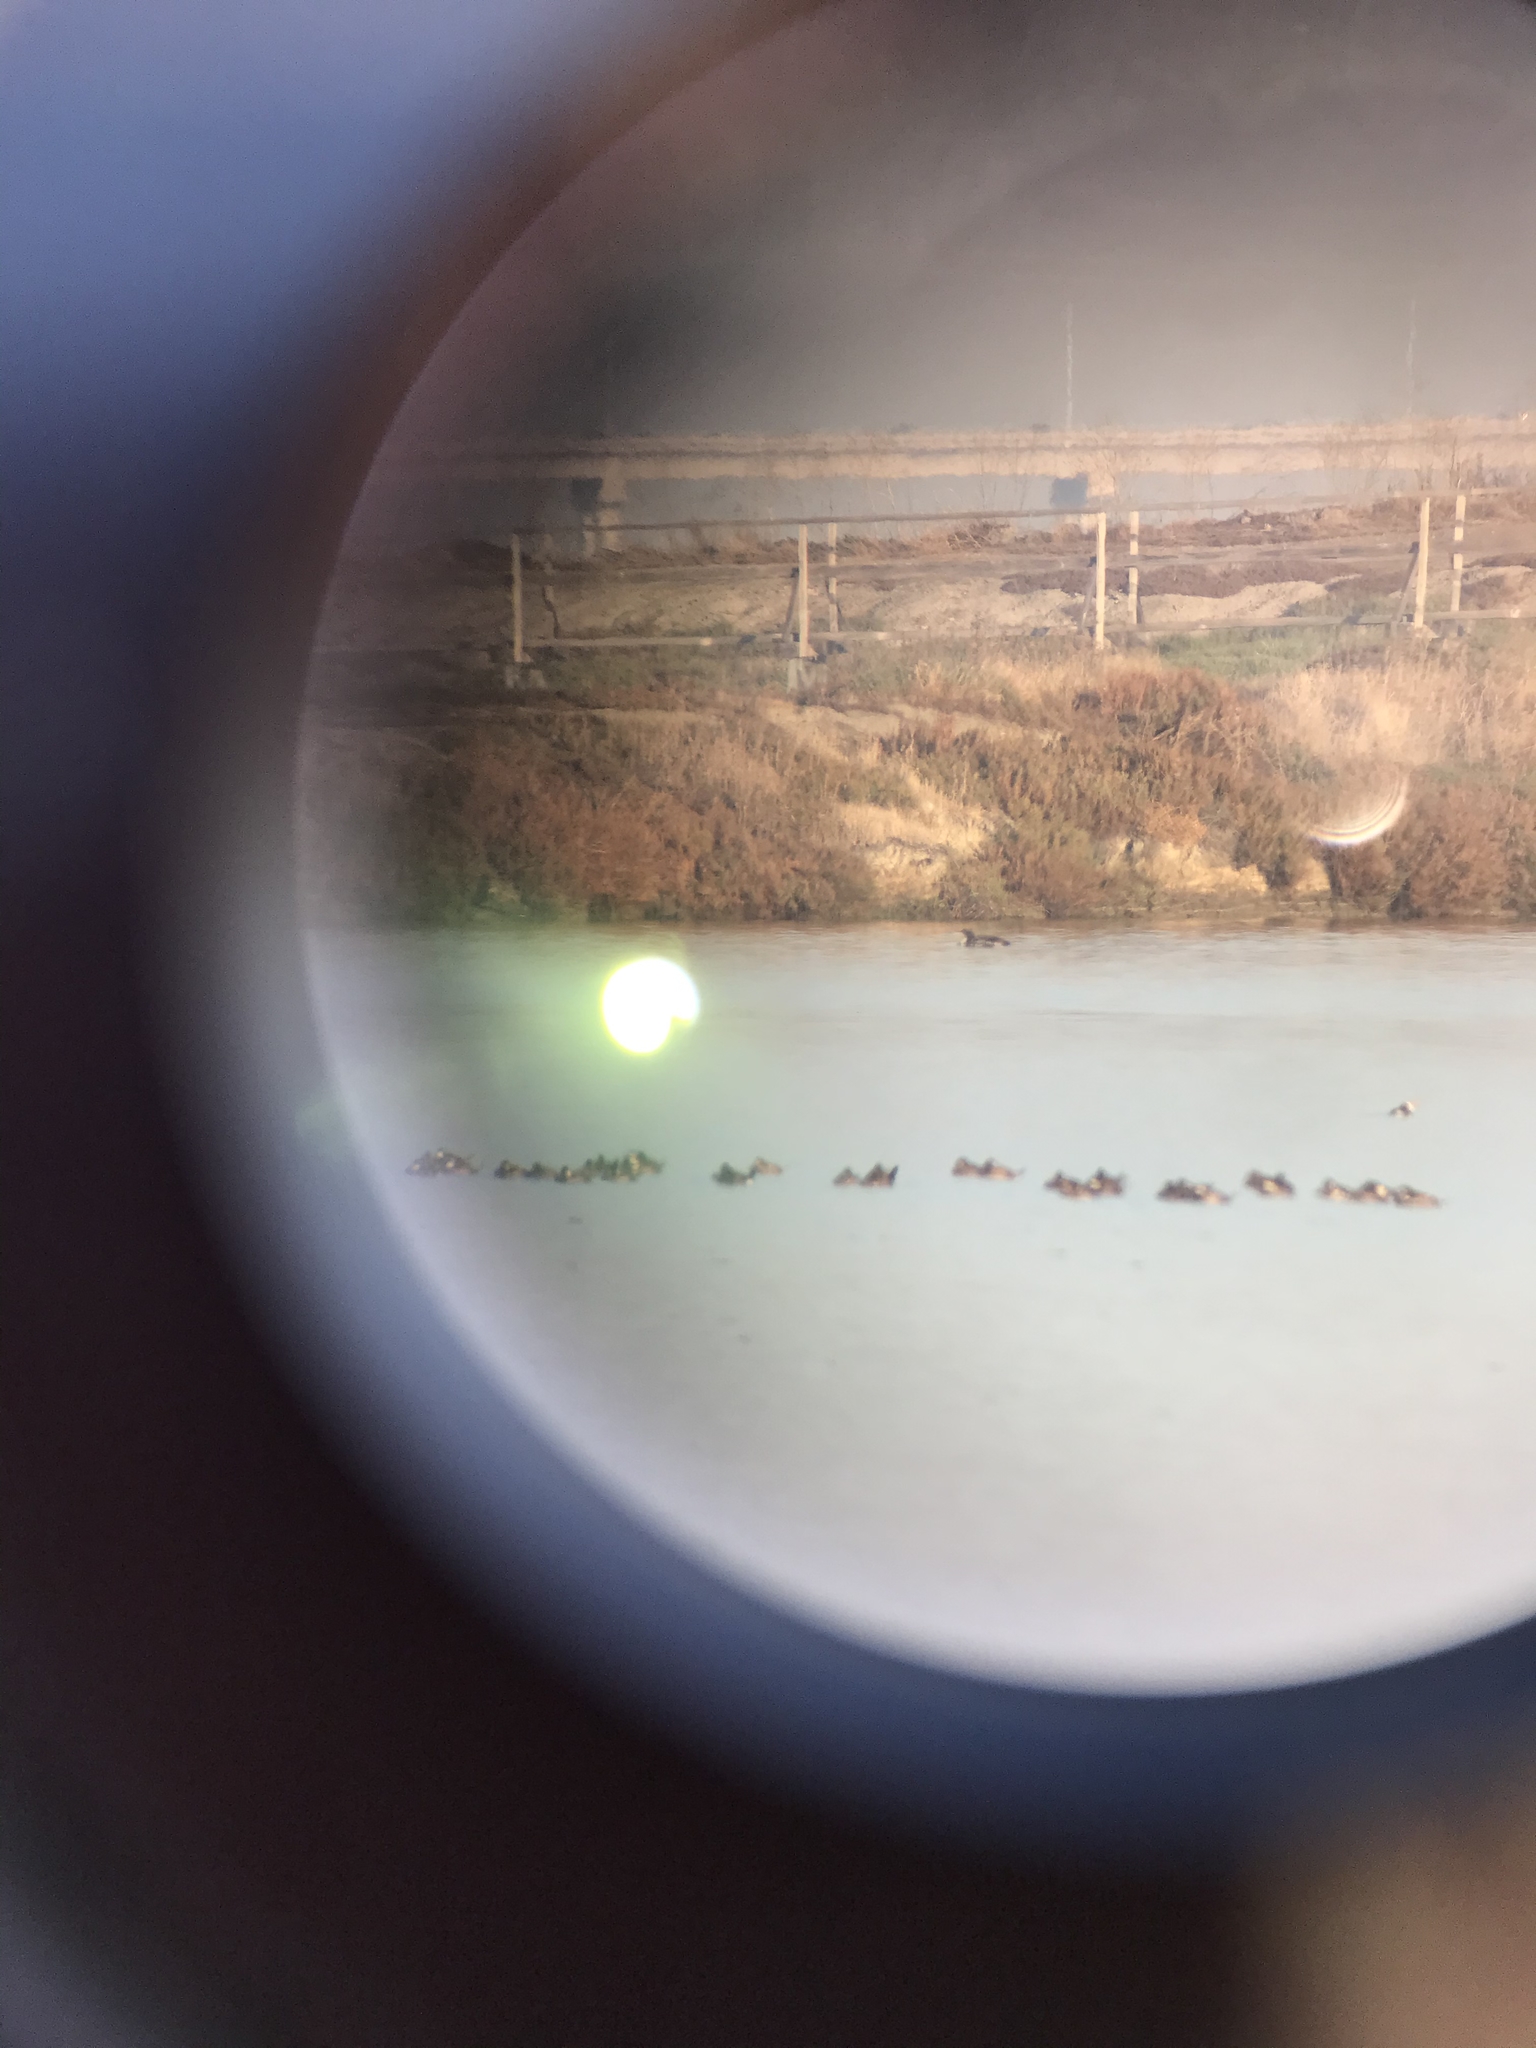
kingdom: Animalia
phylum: Chordata
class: Aves
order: Gaviiformes
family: Gaviidae
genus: Gavia
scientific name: Gavia immer
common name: Common loon
